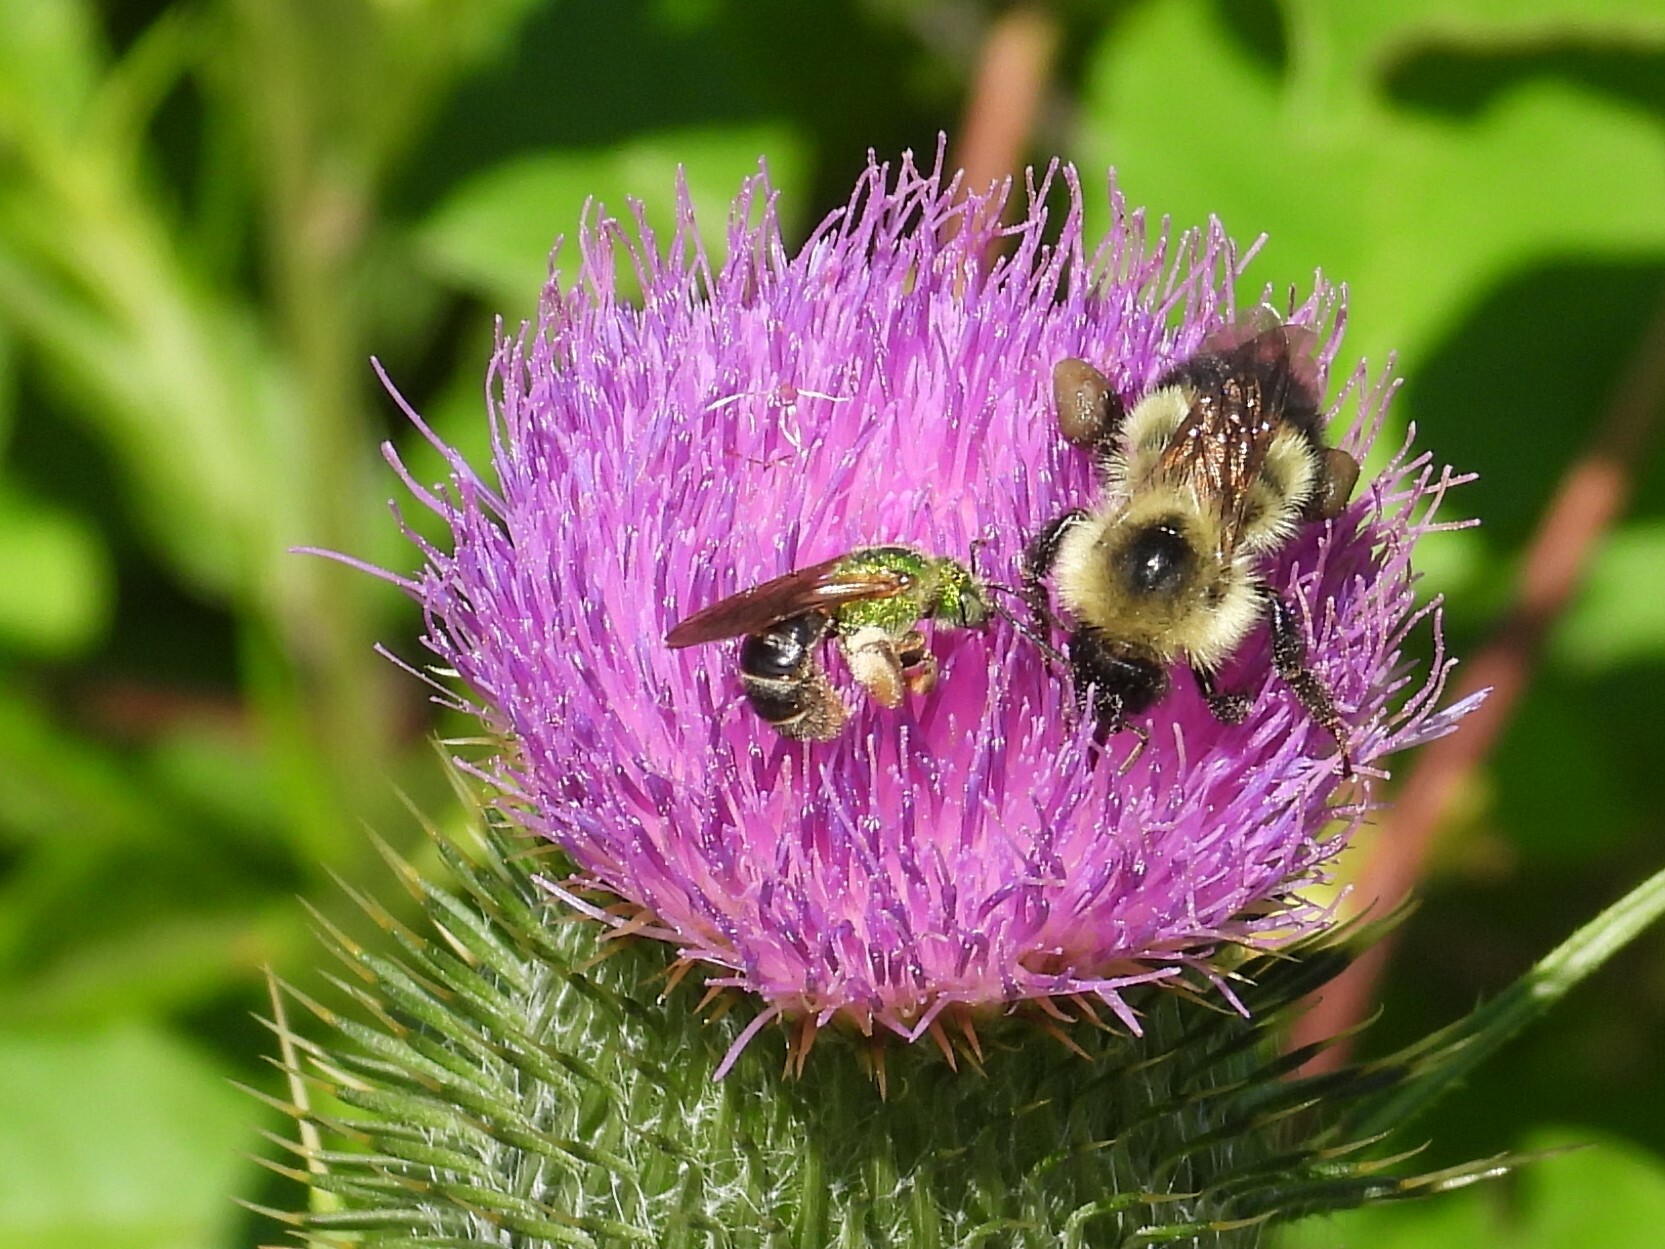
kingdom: Animalia
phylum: Arthropoda
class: Insecta
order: Hymenoptera
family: Halictidae
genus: Agapostemon
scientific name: Agapostemon virescens
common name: Bicolored striped sweat bee
